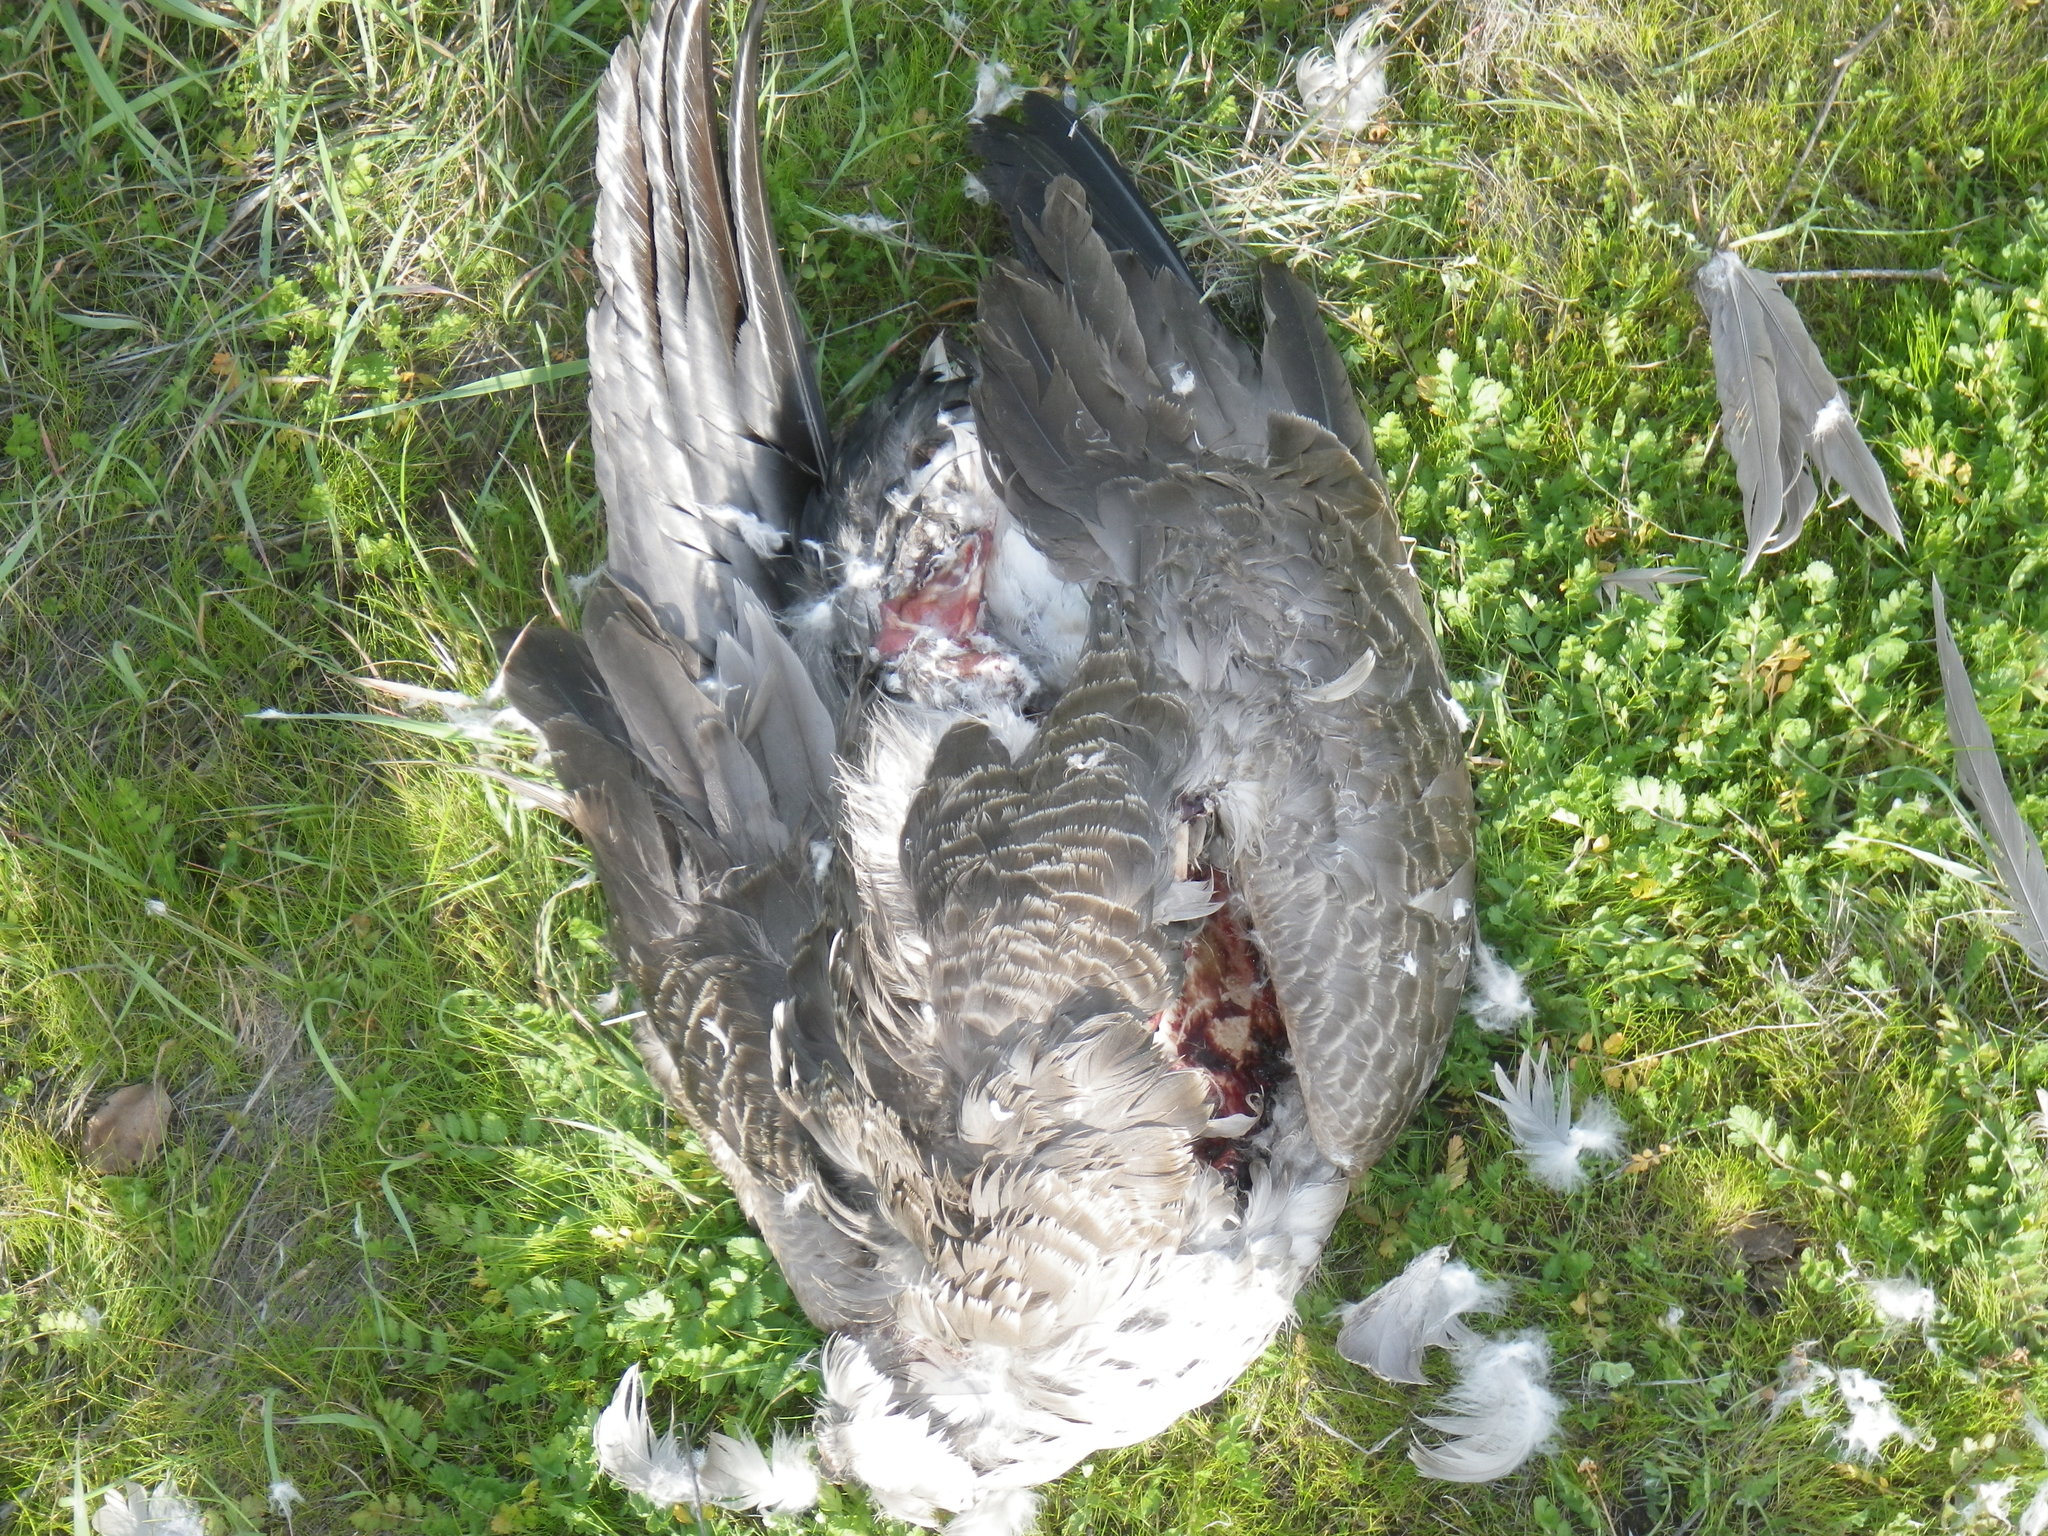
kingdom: Animalia
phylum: Chordata
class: Aves
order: Anseriformes
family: Anatidae
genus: Branta
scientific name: Branta canadensis
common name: Canada goose
